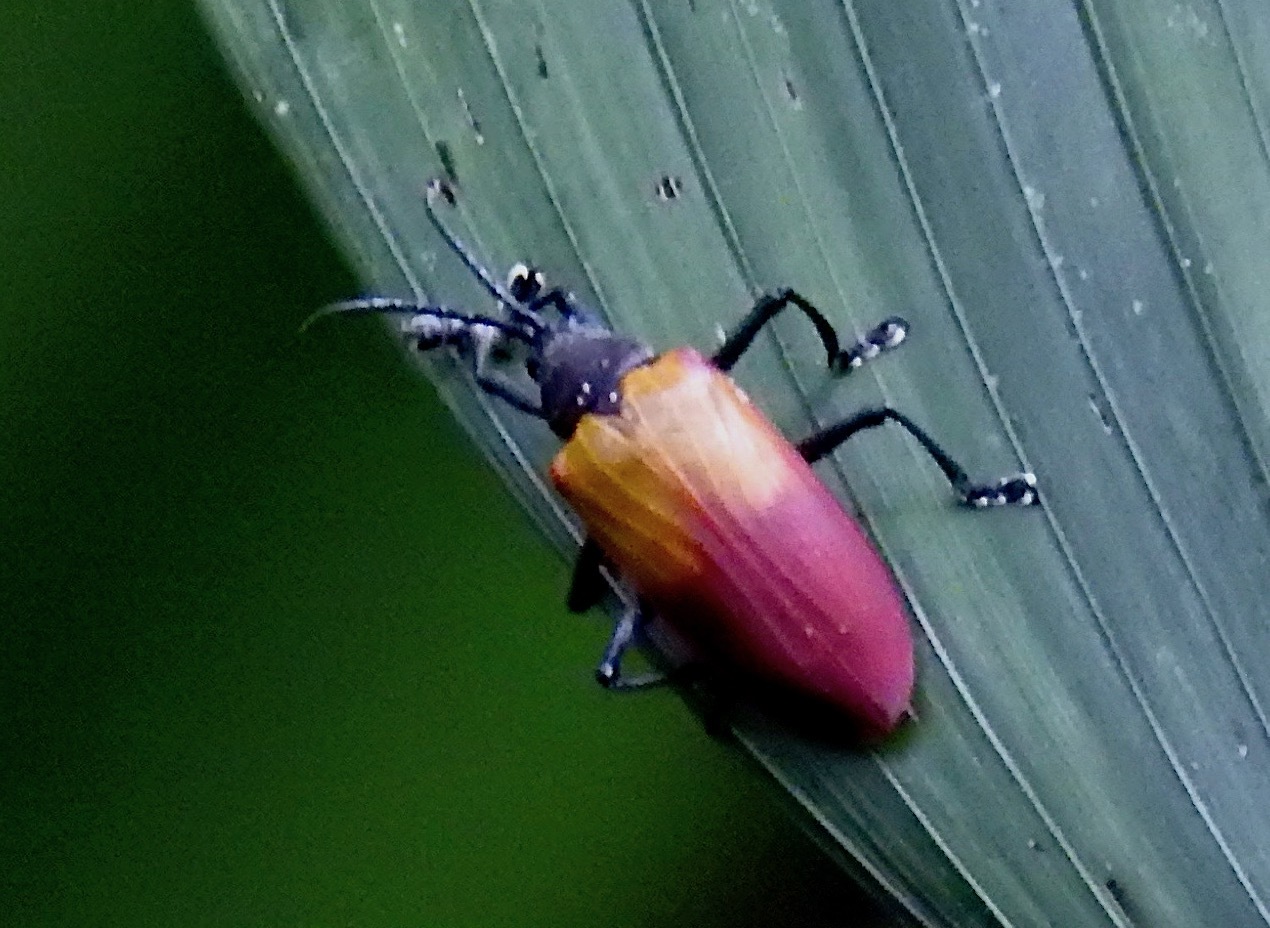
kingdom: Animalia
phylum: Arthropoda
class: Insecta
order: Coleoptera
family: Chrysomelidae
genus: Alurnus
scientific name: Alurnus dallieri
